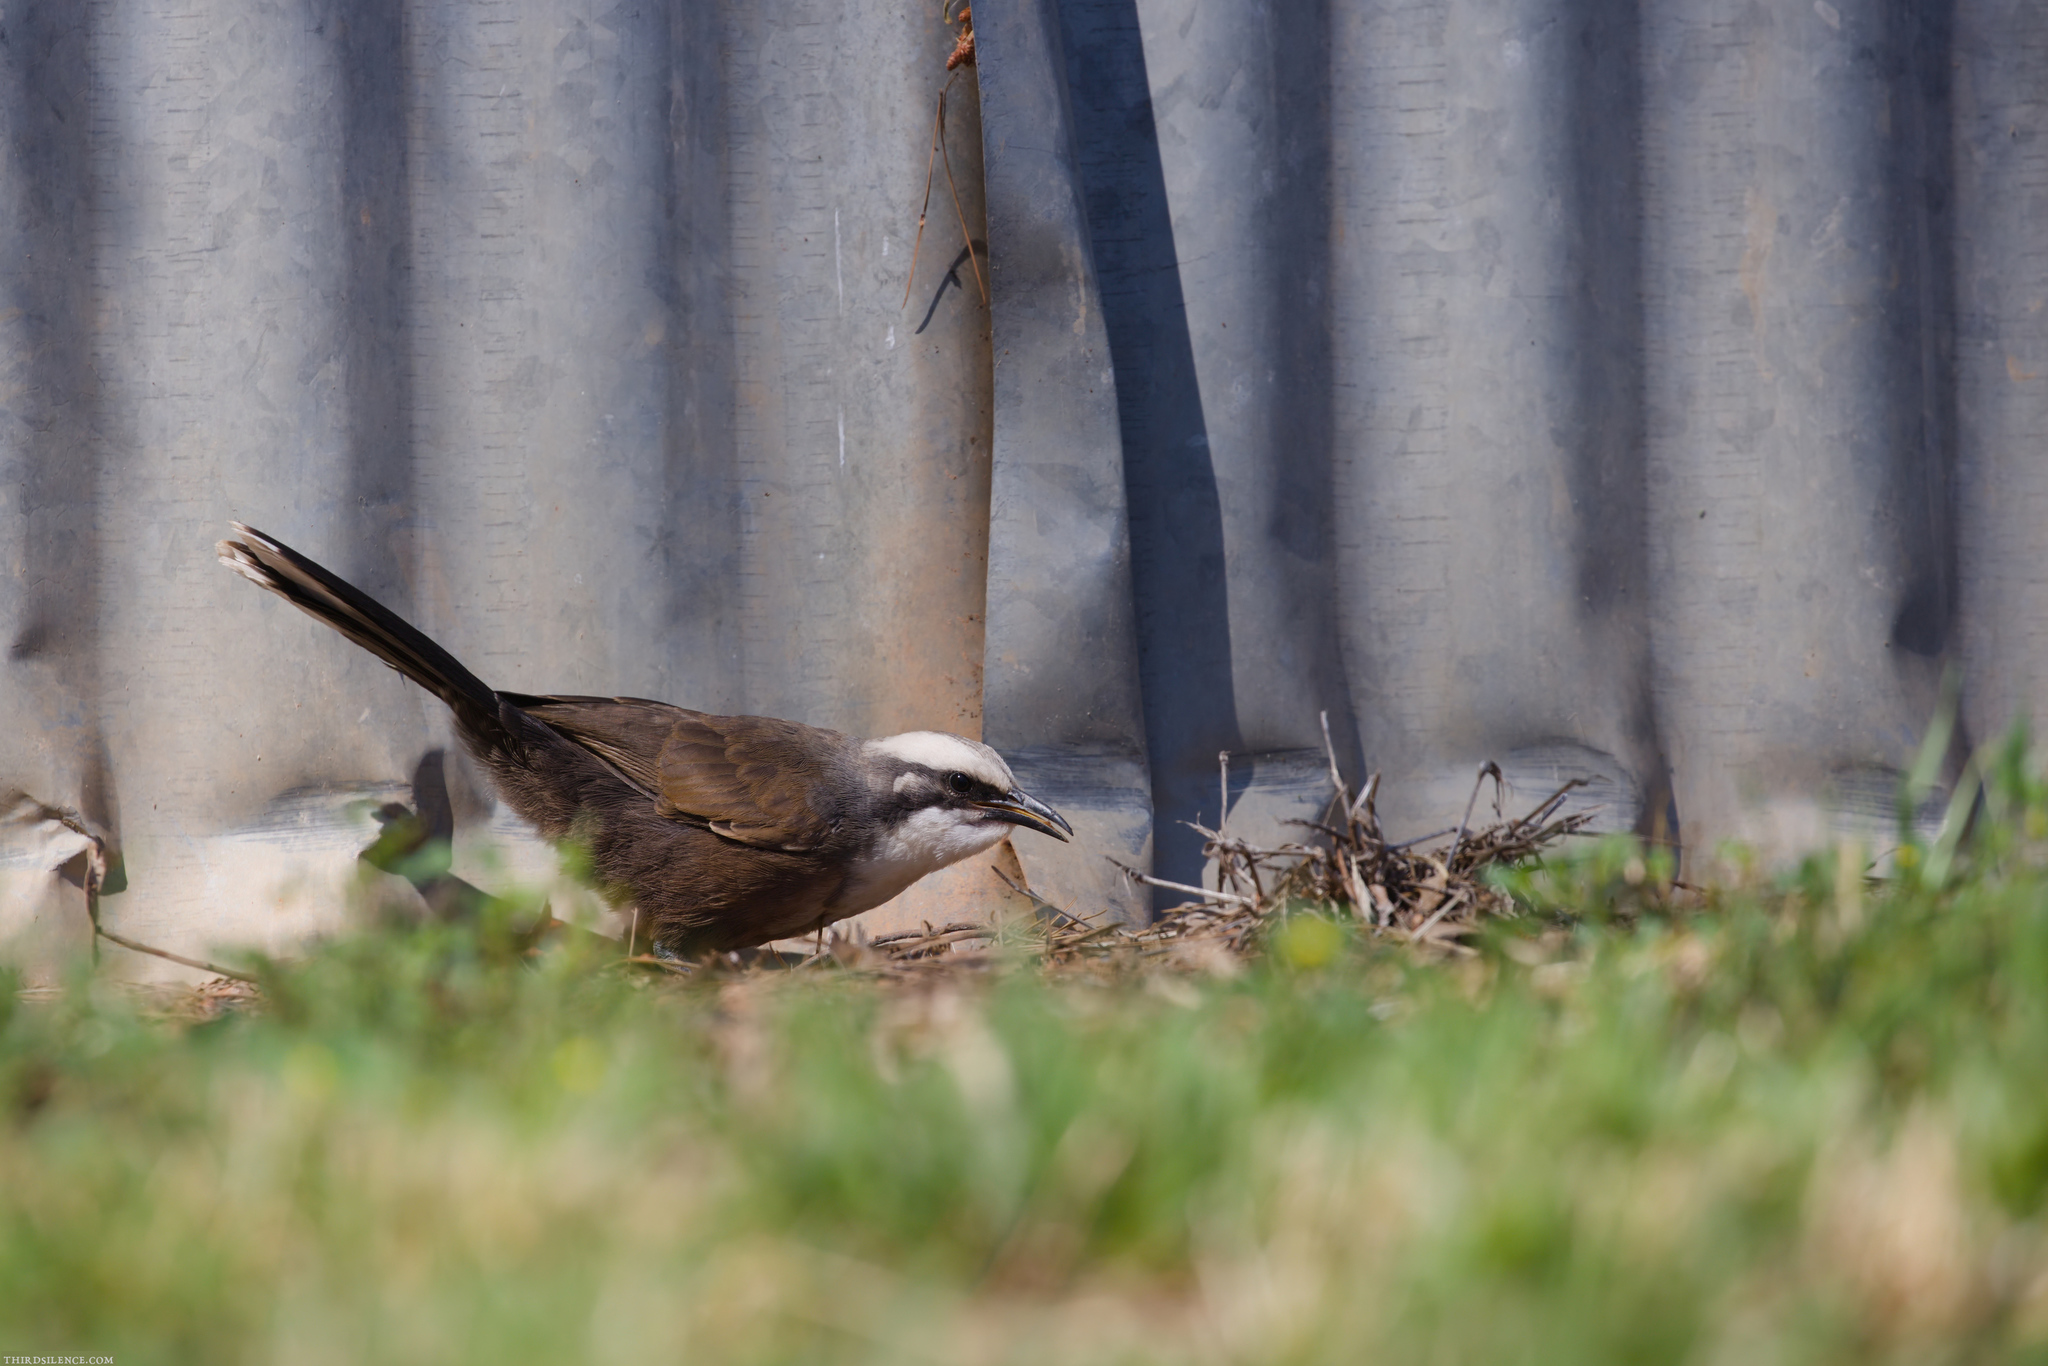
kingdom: Animalia
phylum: Chordata
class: Aves
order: Passeriformes
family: Pomatostomidae
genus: Pomatostomus
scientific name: Pomatostomus temporalis
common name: Grey-crowned babbler
